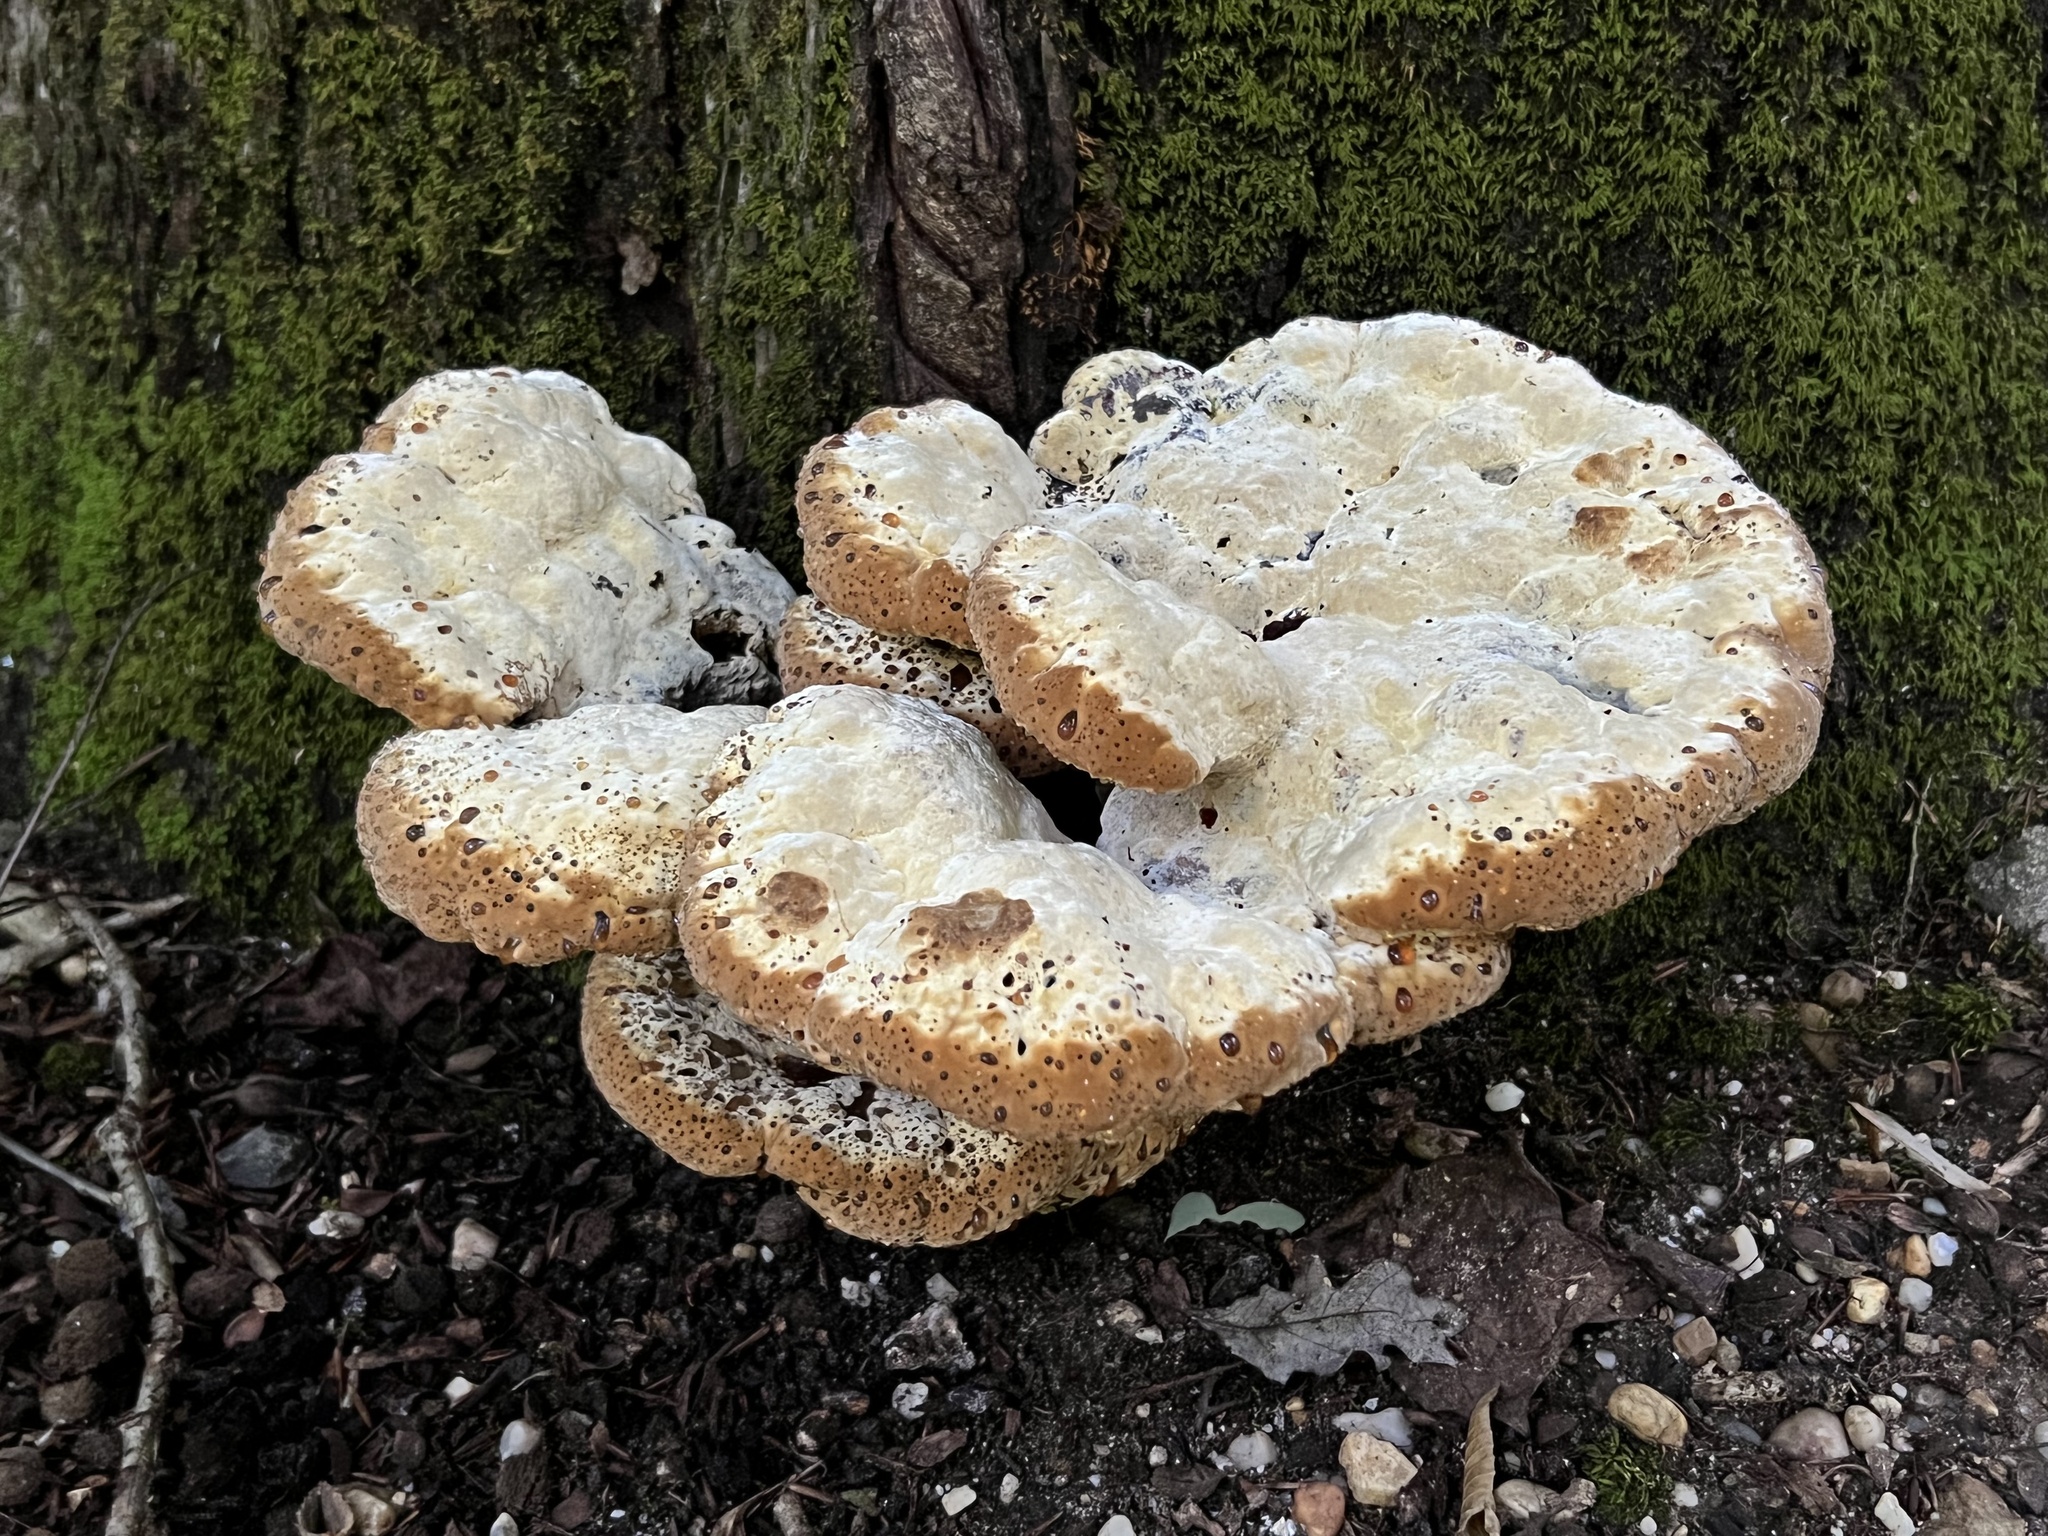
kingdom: Fungi
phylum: Basidiomycota
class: Agaricomycetes
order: Hymenochaetales
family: Hymenochaetaceae
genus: Pseudoinonotus
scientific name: Pseudoinonotus dryadeus
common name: Oak bracket
